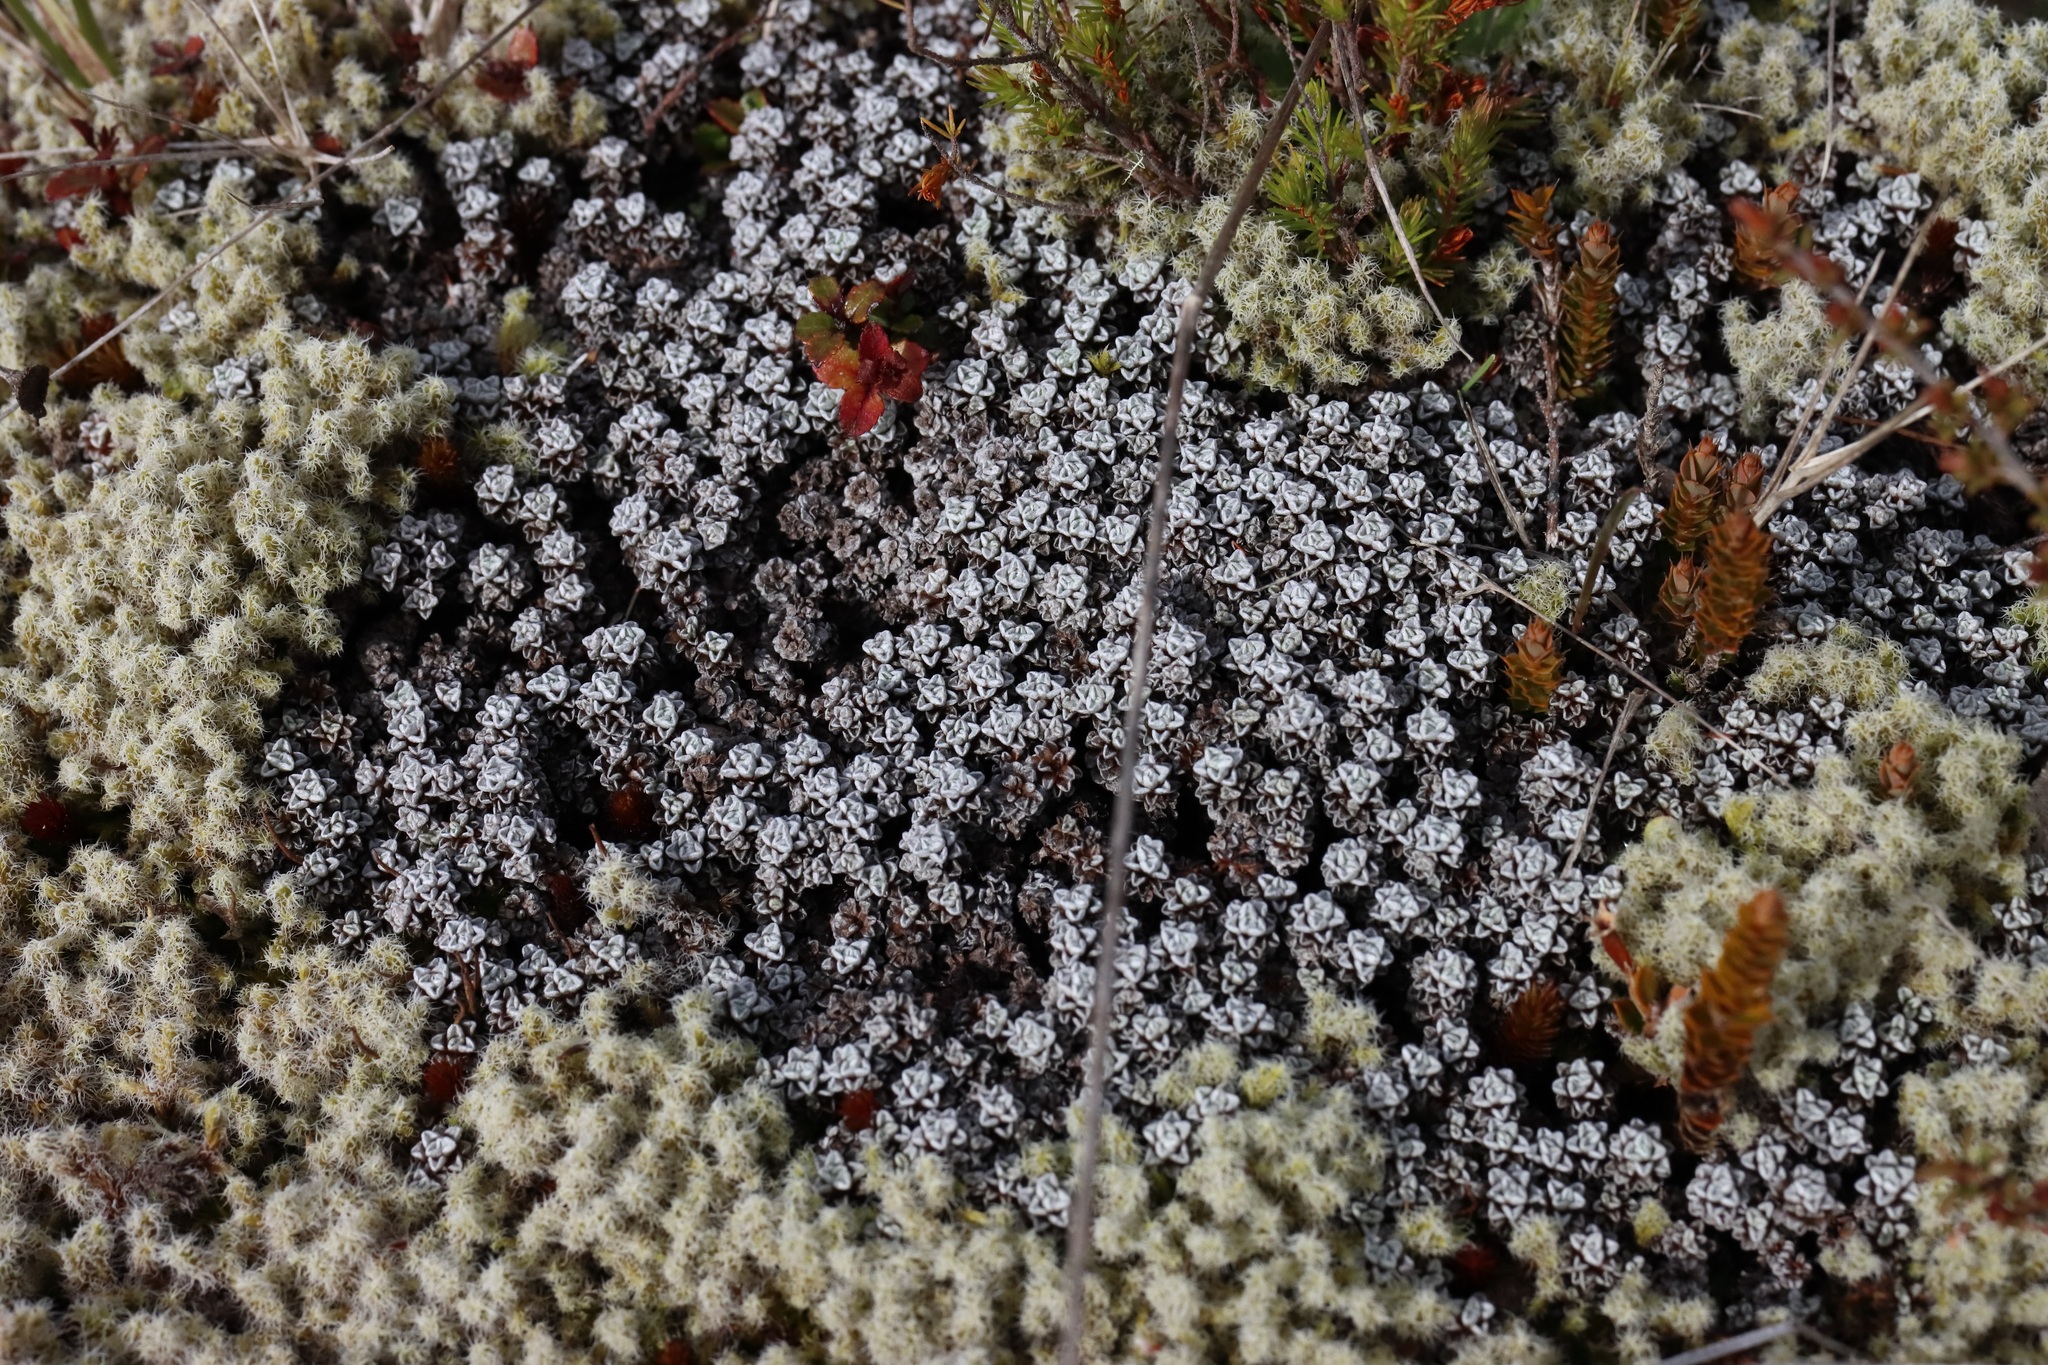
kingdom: Plantae
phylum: Tracheophyta
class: Magnoliopsida
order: Asterales
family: Asteraceae
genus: Raoulia
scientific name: Raoulia albosericea
